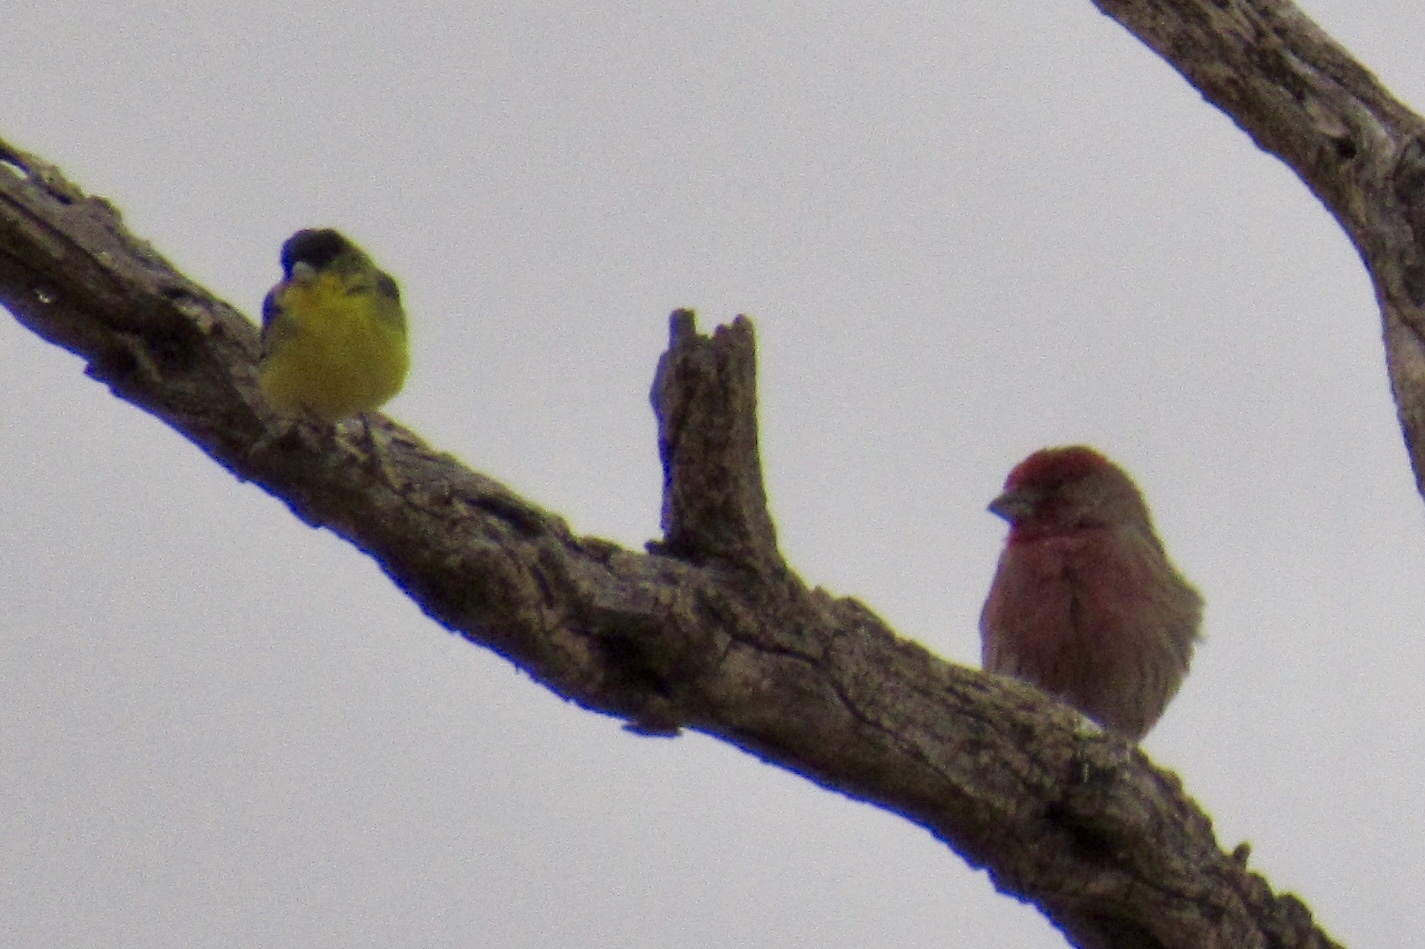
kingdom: Animalia
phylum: Chordata
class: Aves
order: Passeriformes
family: Fringillidae
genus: Haemorhous
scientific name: Haemorhous mexicanus
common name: House finch
